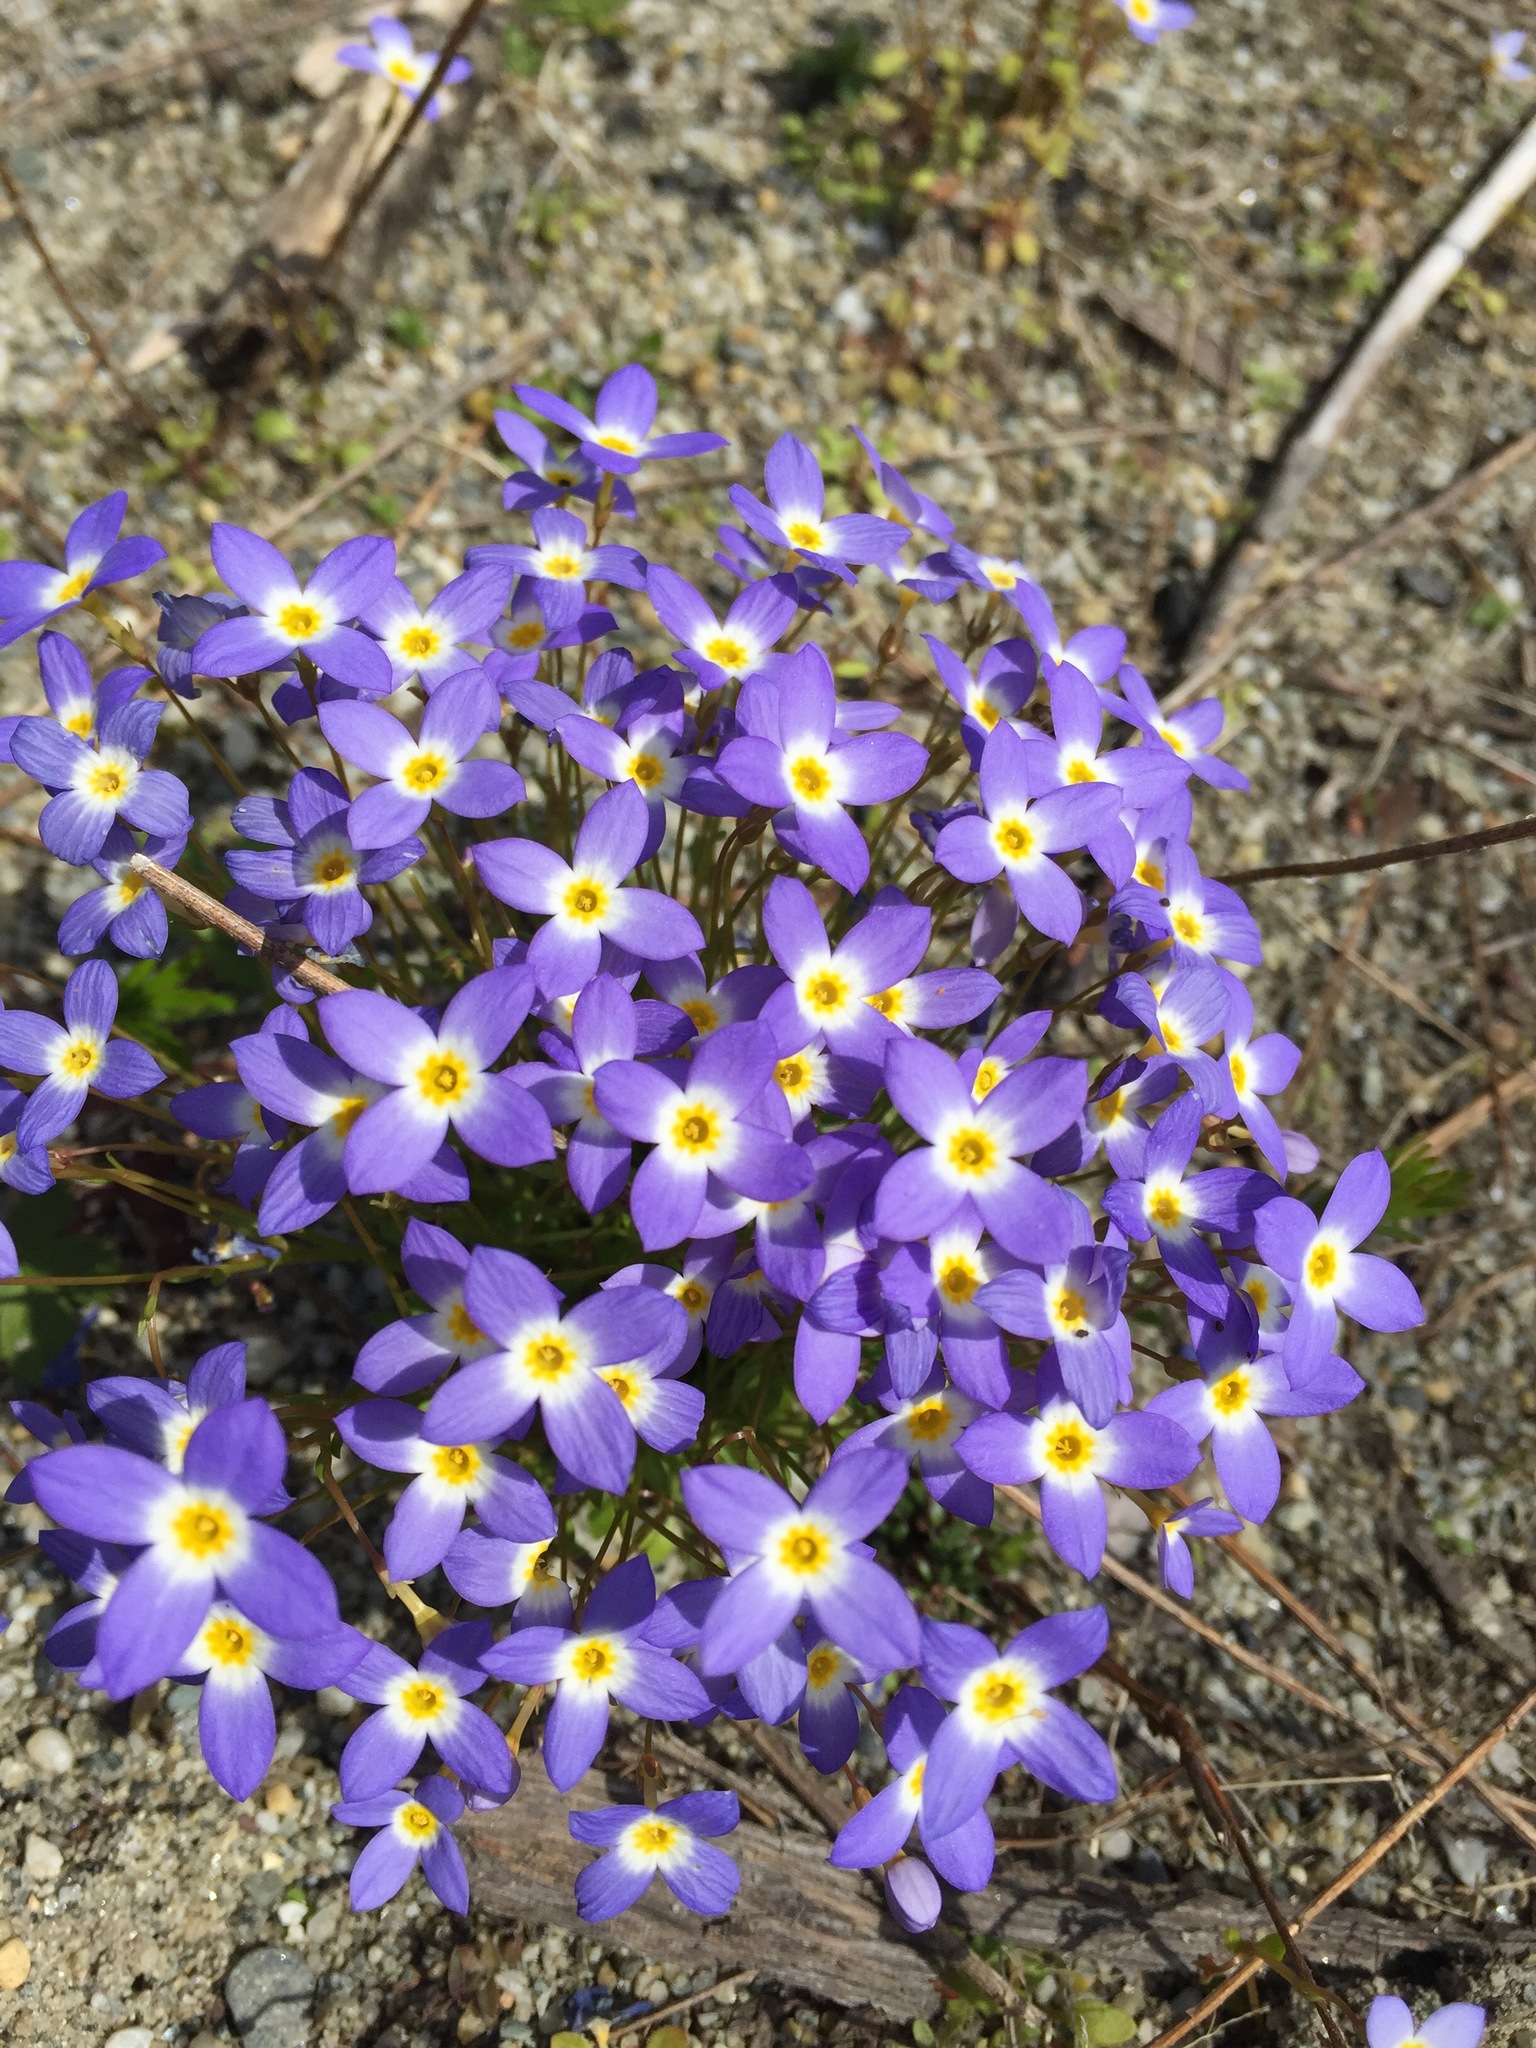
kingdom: Plantae
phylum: Tracheophyta
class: Magnoliopsida
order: Gentianales
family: Rubiaceae
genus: Houstonia
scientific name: Houstonia caerulea
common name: Bluets
